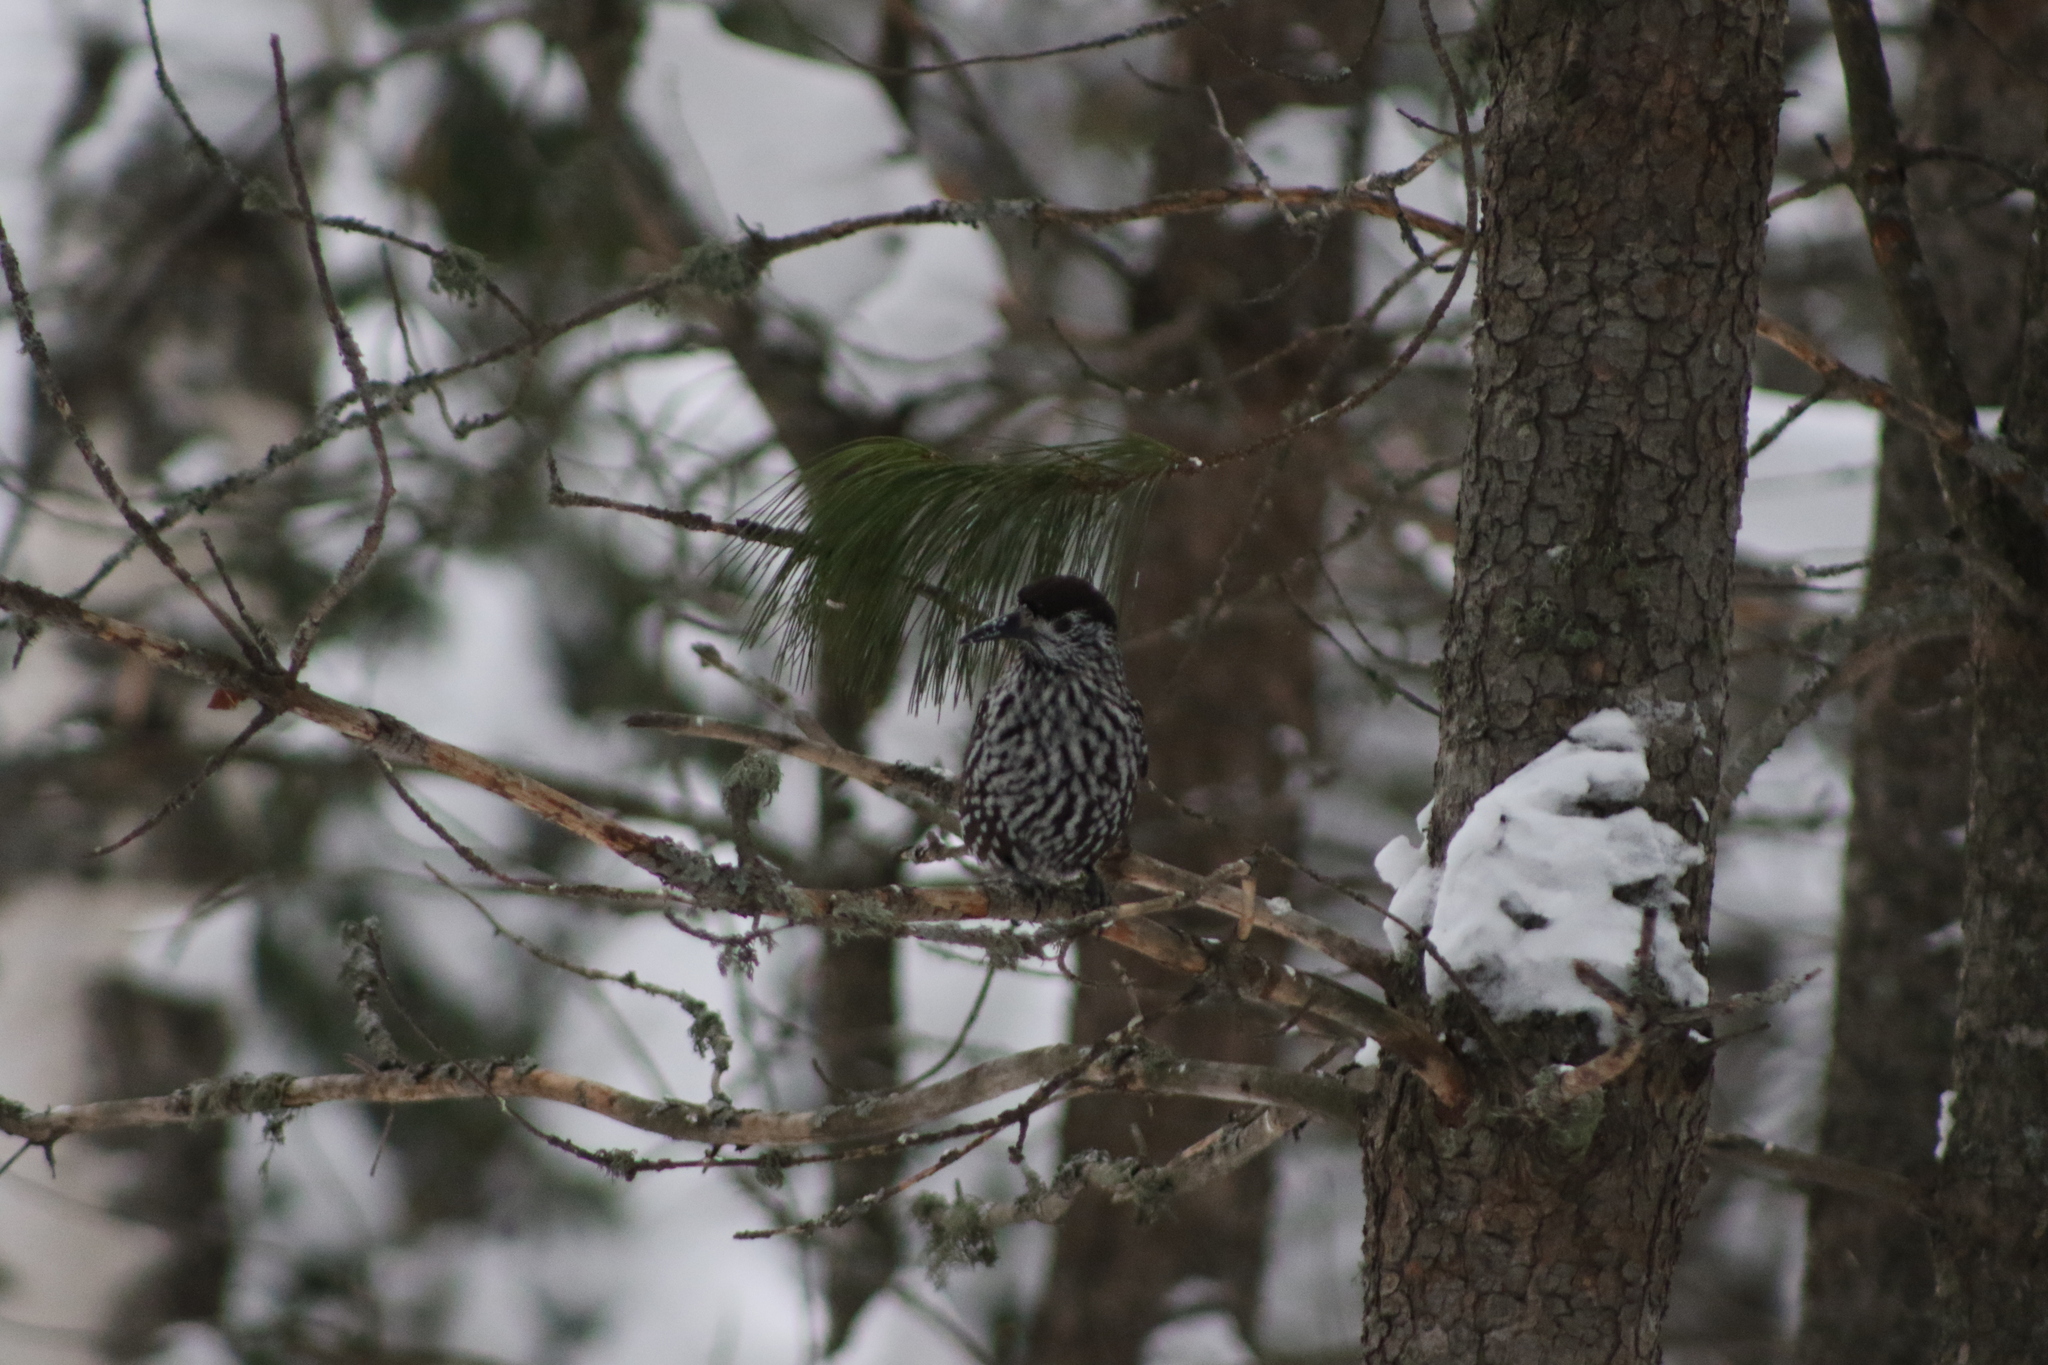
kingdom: Animalia
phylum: Chordata
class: Aves
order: Passeriformes
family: Corvidae
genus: Nucifraga
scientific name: Nucifraga caryocatactes
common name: Spotted nutcracker
